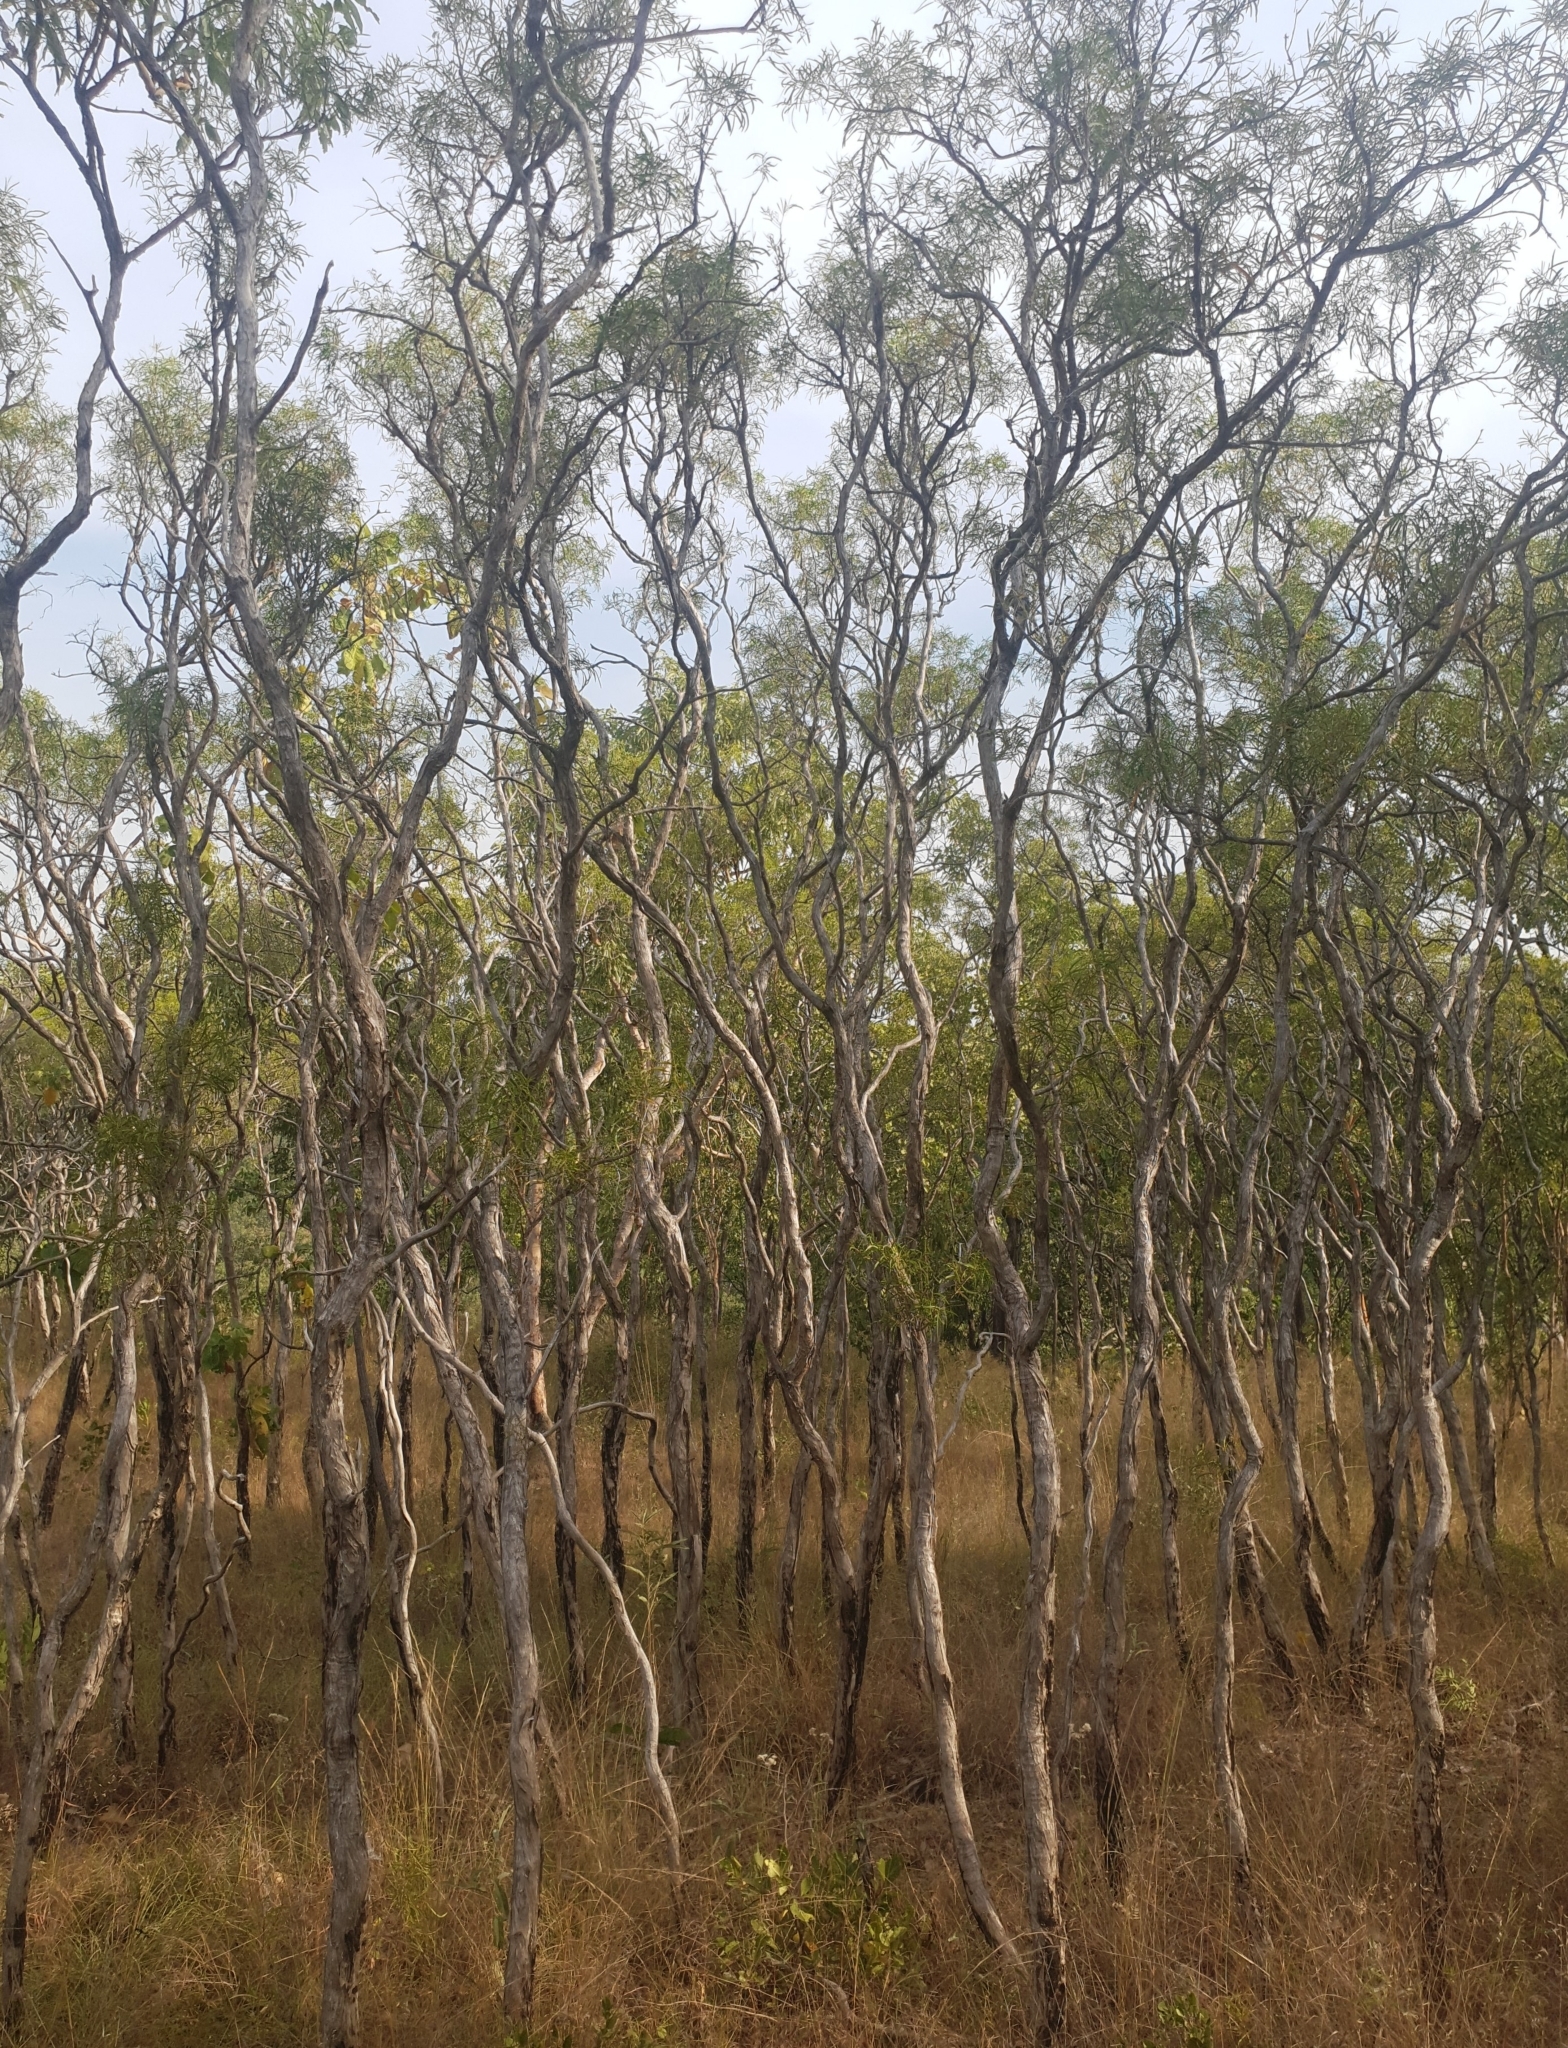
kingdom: Plantae
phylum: Tracheophyta
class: Magnoliopsida
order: Myrtales
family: Myrtaceae
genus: Melaleuca
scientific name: Melaleuca stipitata
